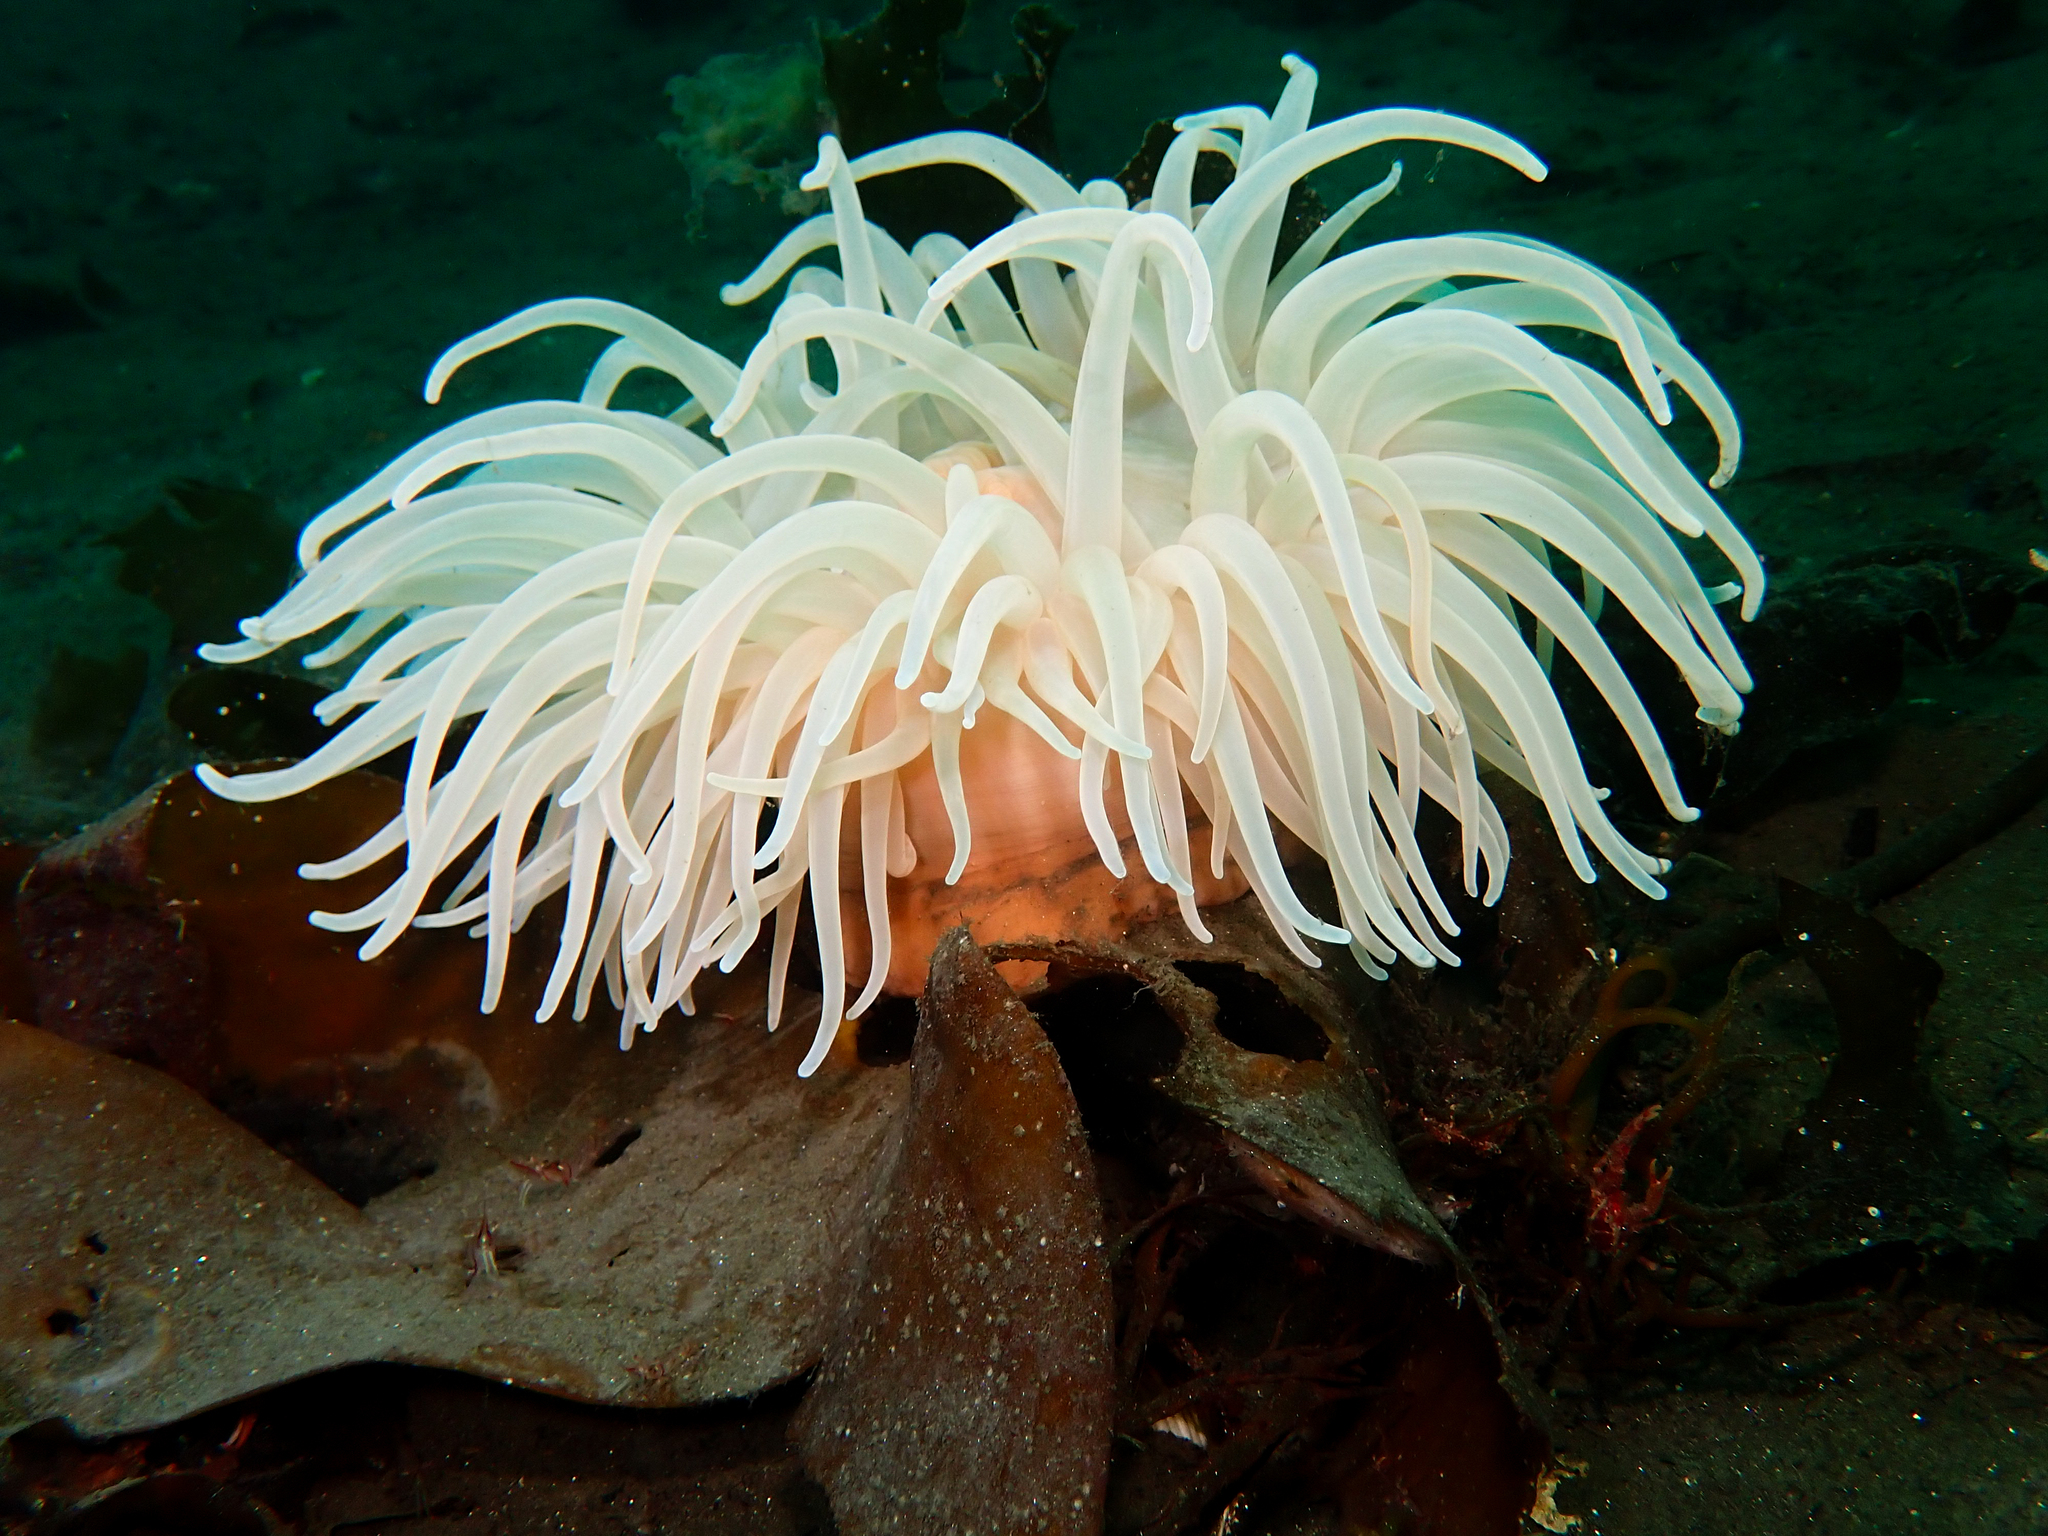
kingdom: Animalia
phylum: Cnidaria
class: Anthozoa
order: Actiniaria
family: Actiniidae
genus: Bolocera
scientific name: Bolocera tuediae
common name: Deeplet sea anemone
